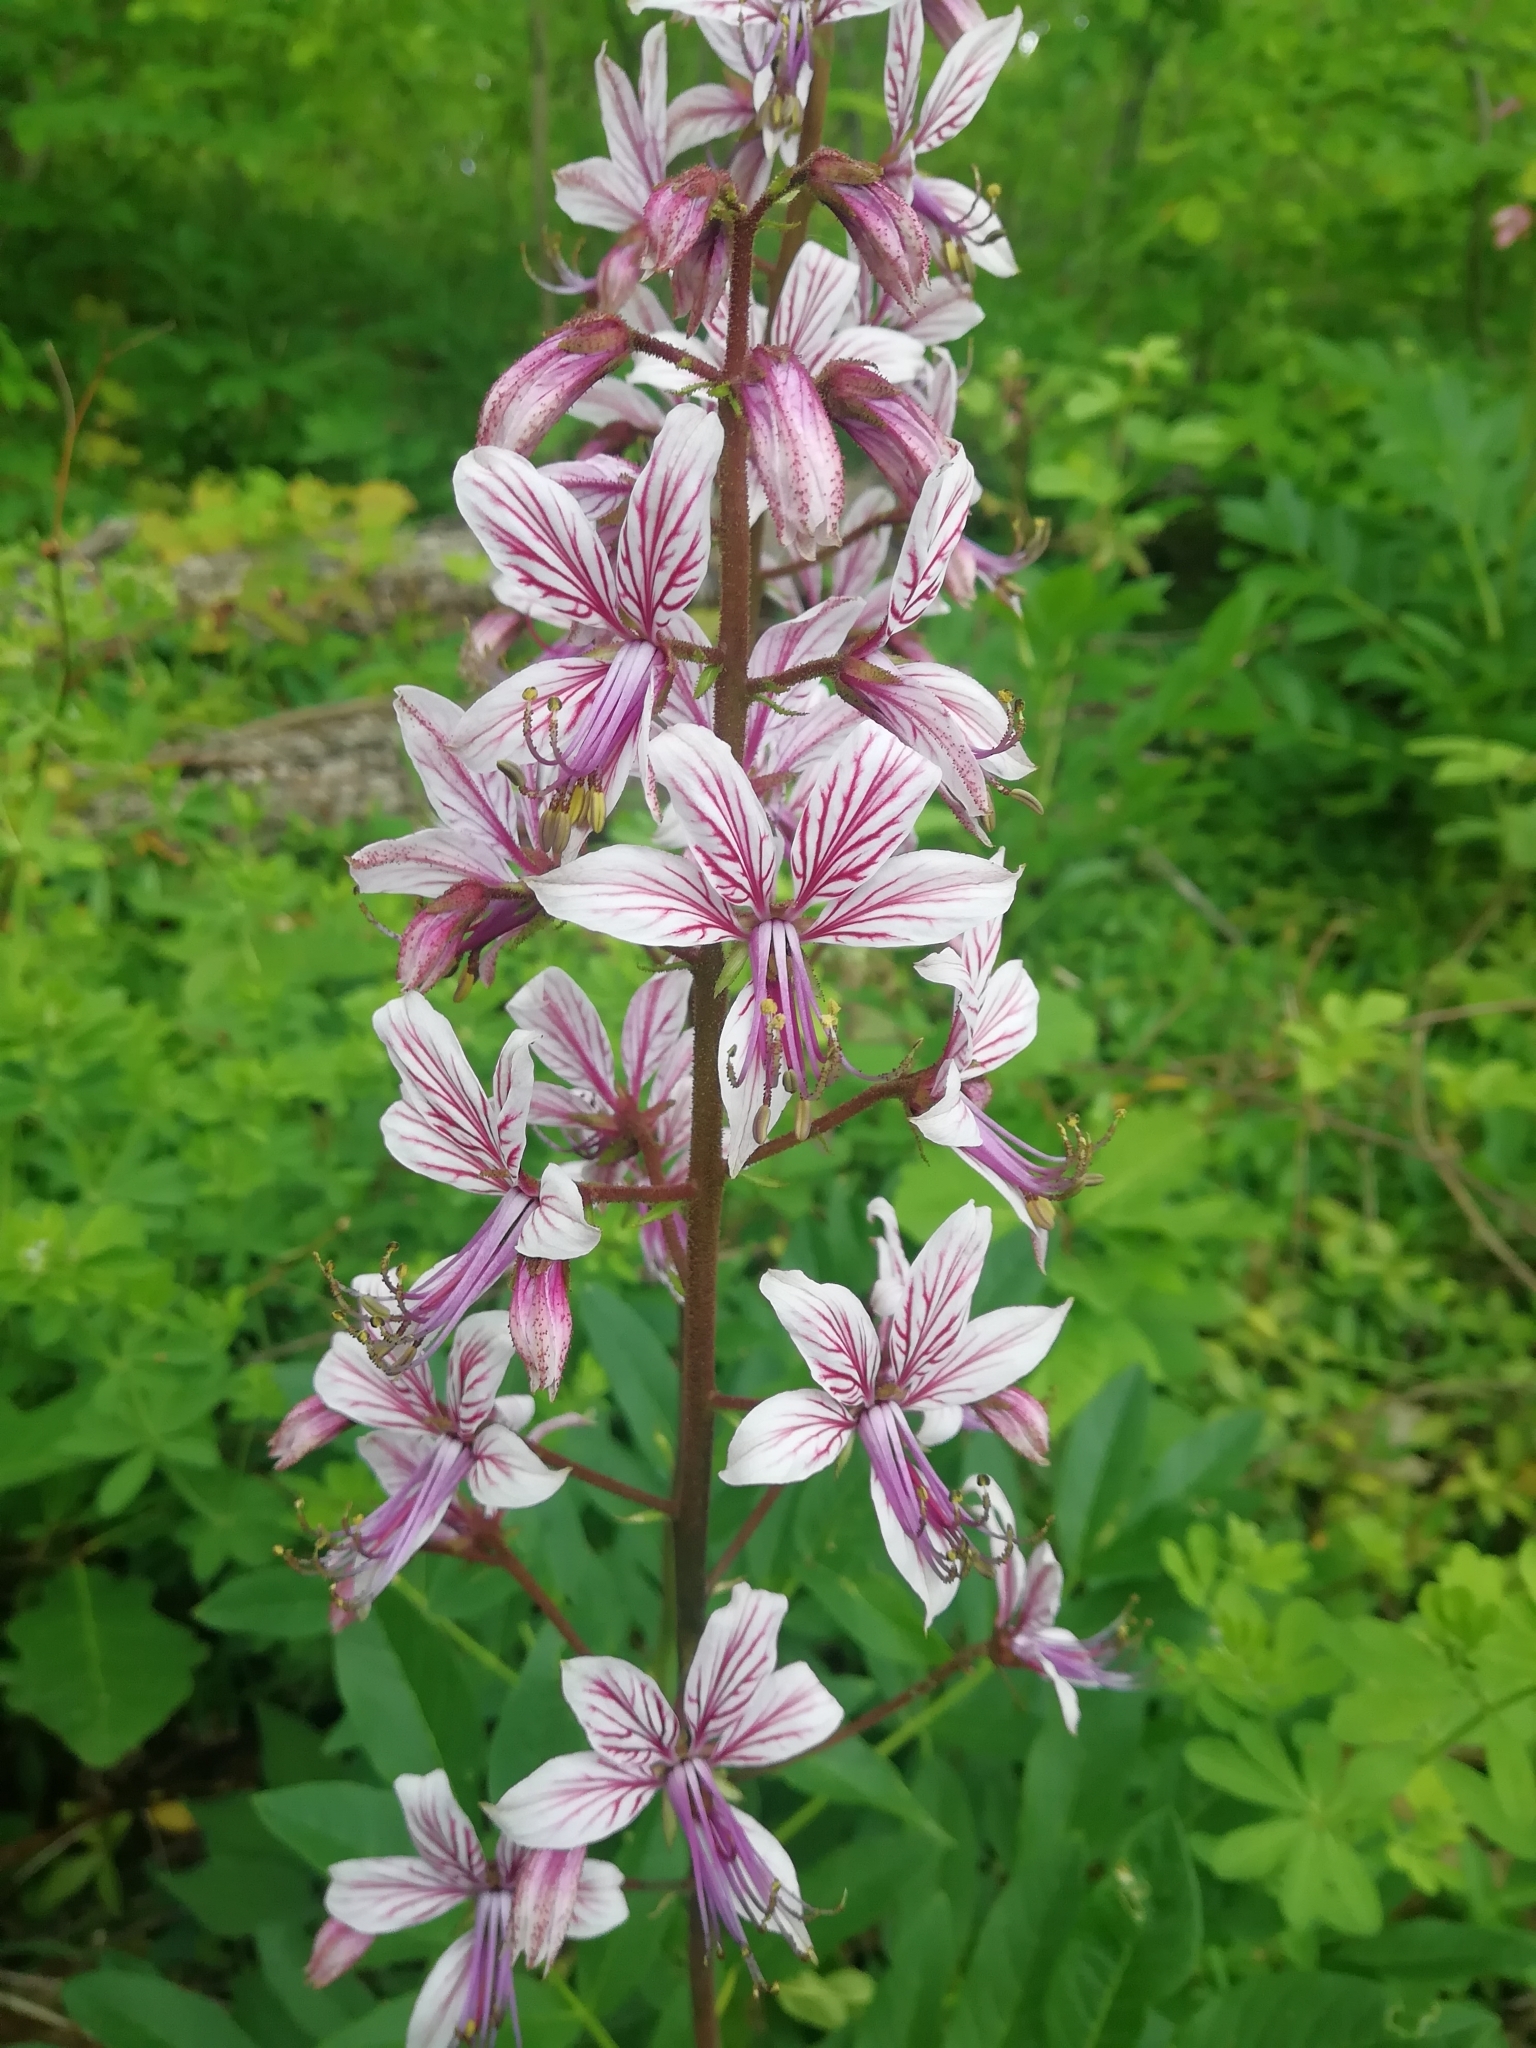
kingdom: Plantae
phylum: Tracheophyta
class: Magnoliopsida
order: Sapindales
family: Rutaceae
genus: Dictamnus
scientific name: Dictamnus albus
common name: Gasplant
